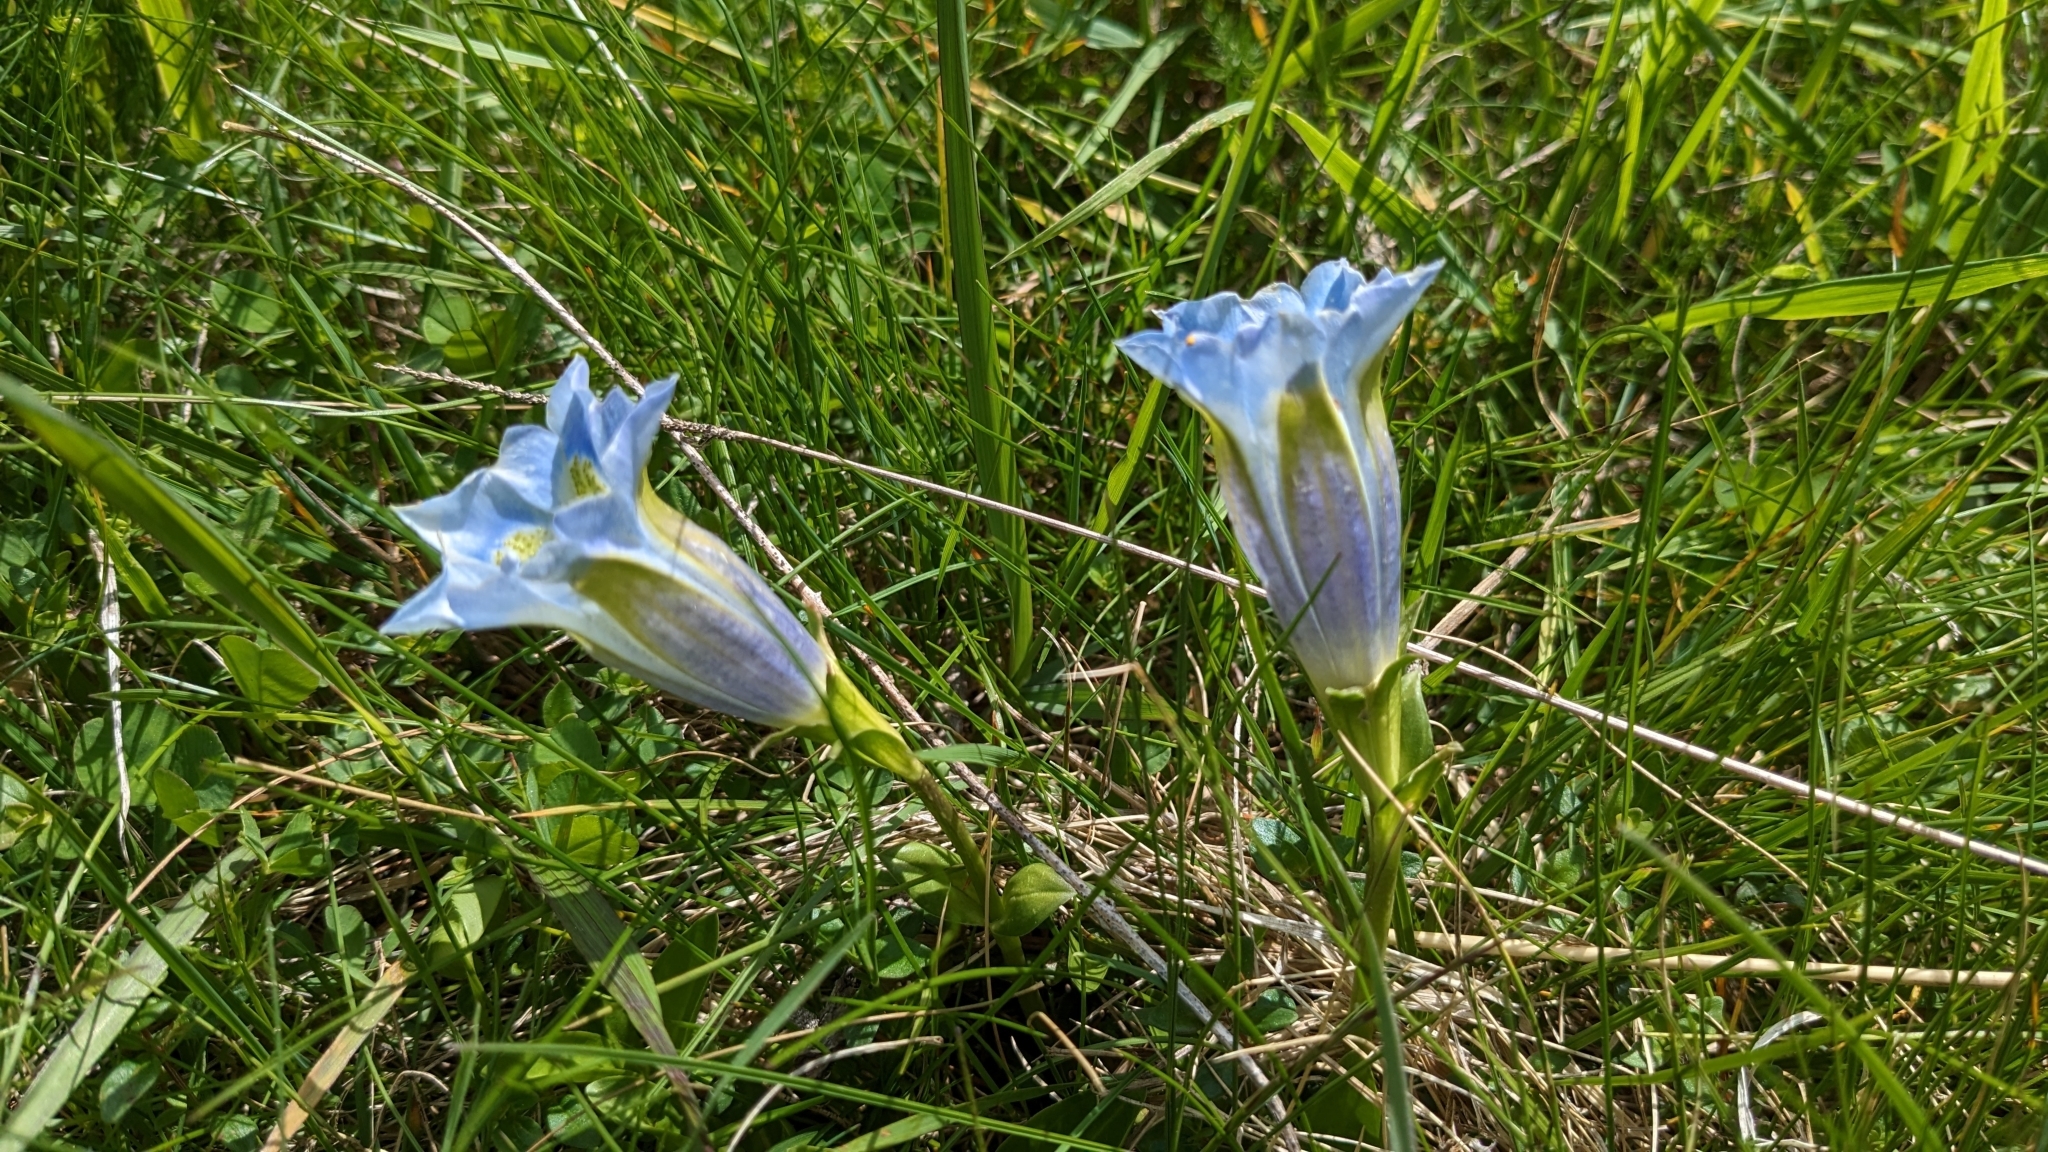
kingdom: Plantae
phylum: Tracheophyta
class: Magnoliopsida
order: Gentianales
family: Gentianaceae
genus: Gentiana
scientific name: Gentiana acaulis
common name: Trumpet gentian
